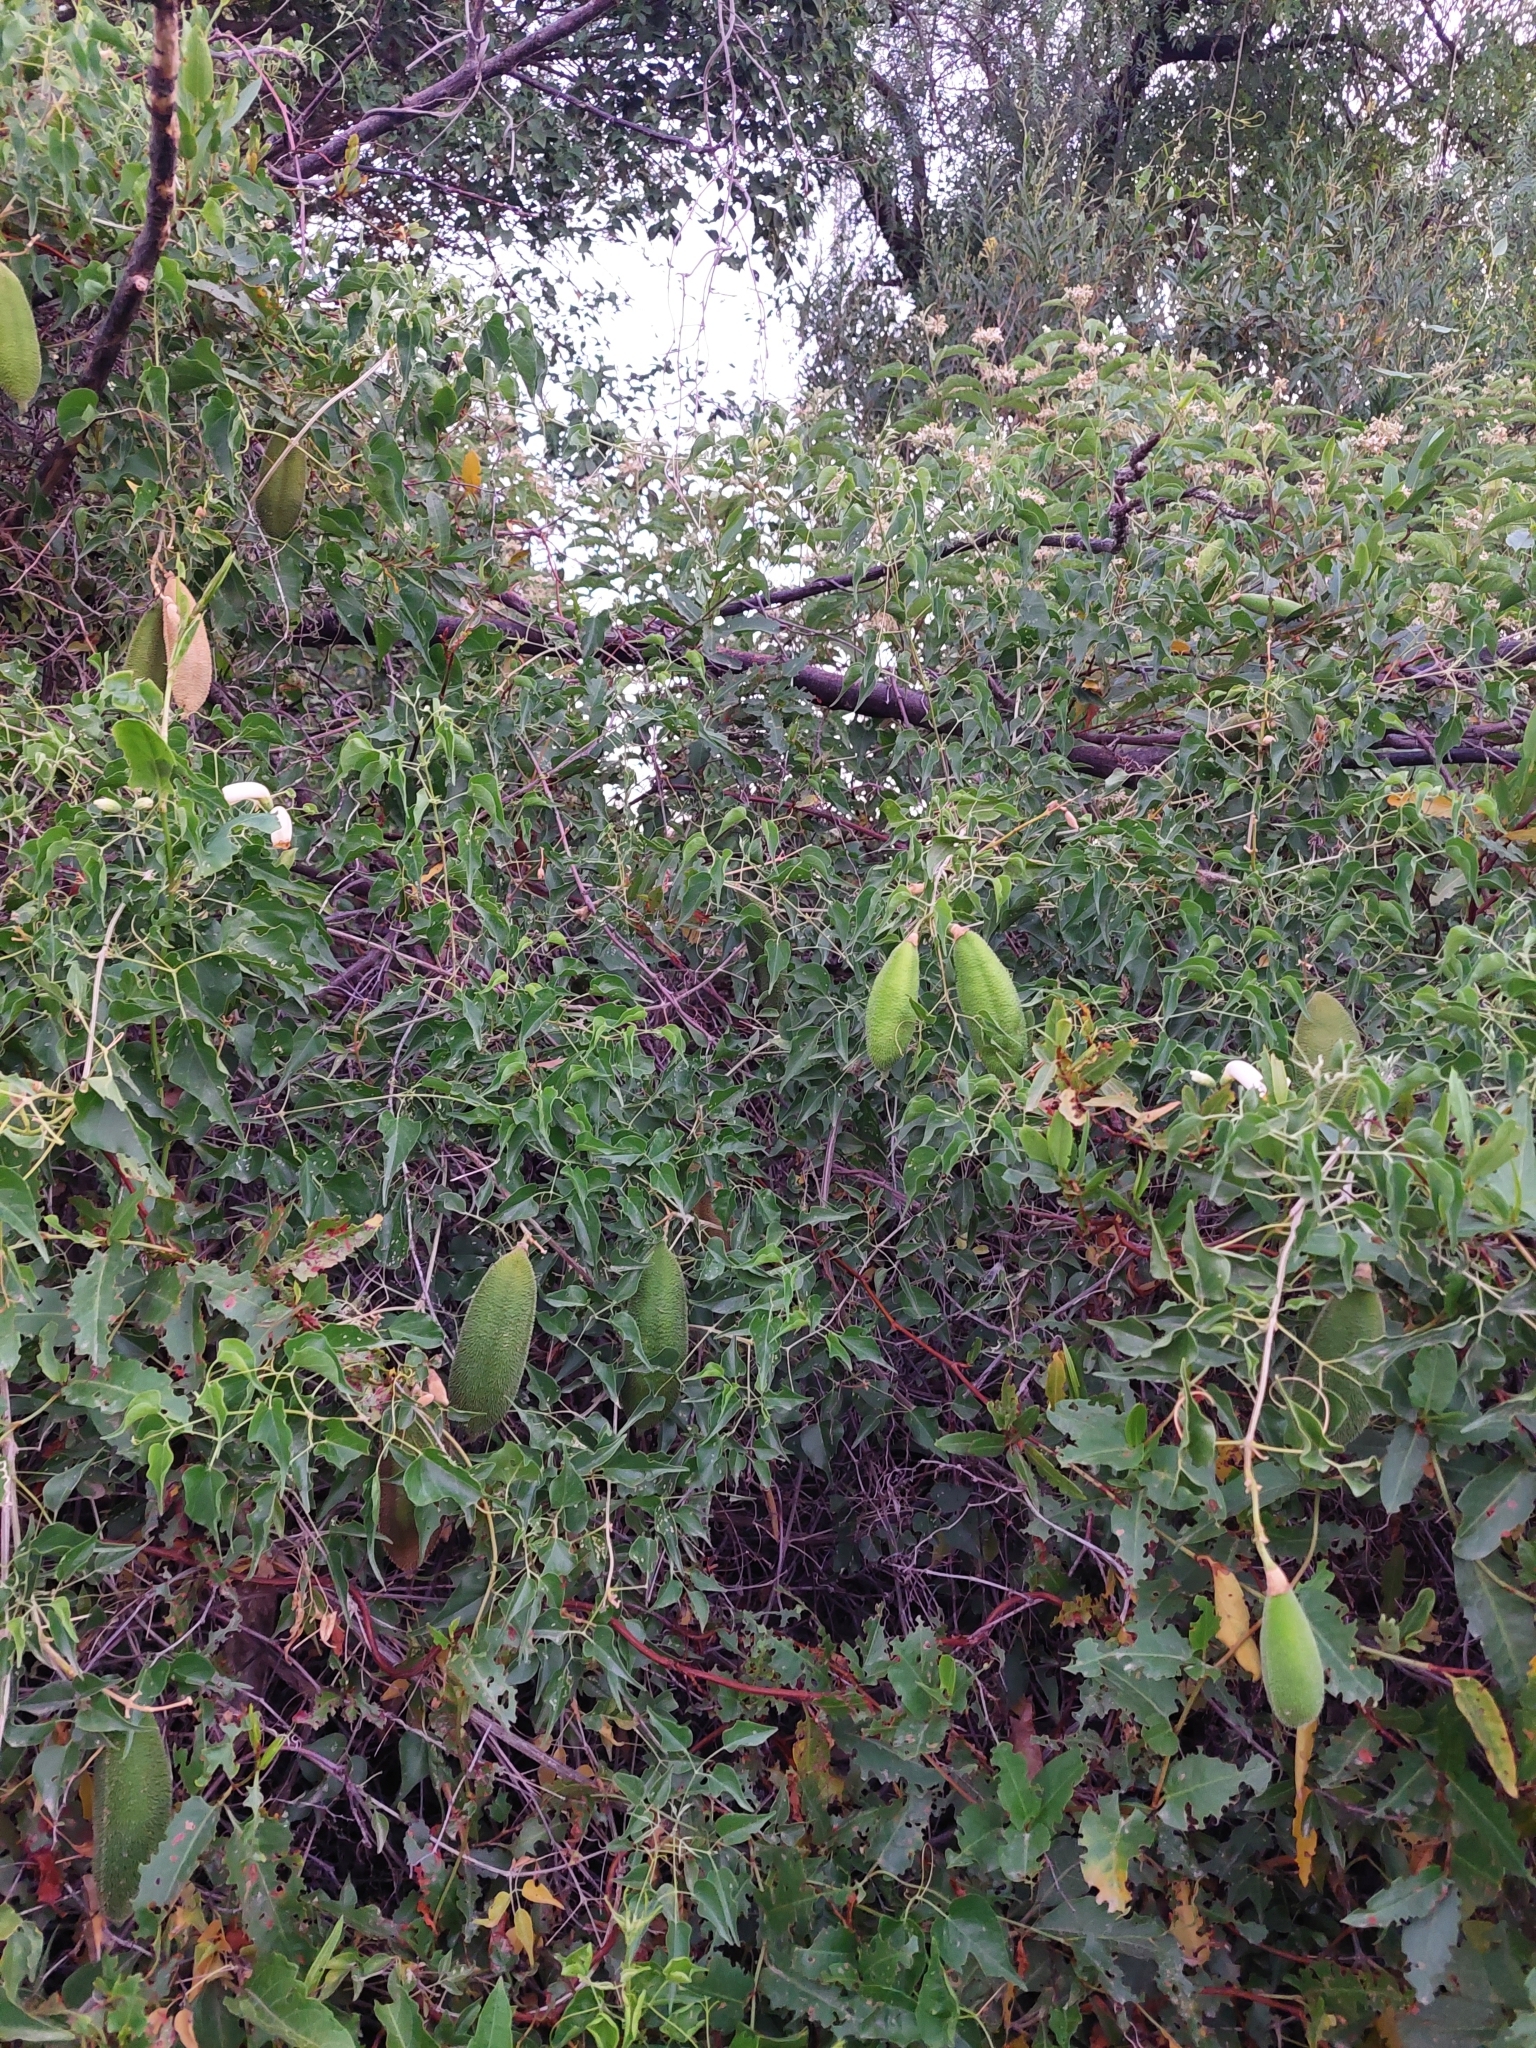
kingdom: Plantae
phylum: Tracheophyta
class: Magnoliopsida
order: Lamiales
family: Bignoniaceae
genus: Amphilophium
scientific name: Amphilophium carolinae
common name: Monkey's-comb
